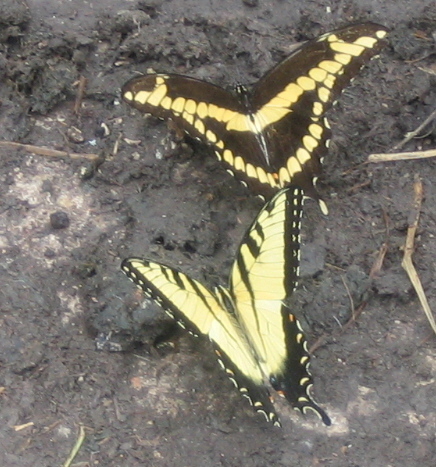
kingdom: Animalia
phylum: Arthropoda
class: Insecta
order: Lepidoptera
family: Papilionidae
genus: Papilio
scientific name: Papilio glaucus
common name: Tiger swallowtail
